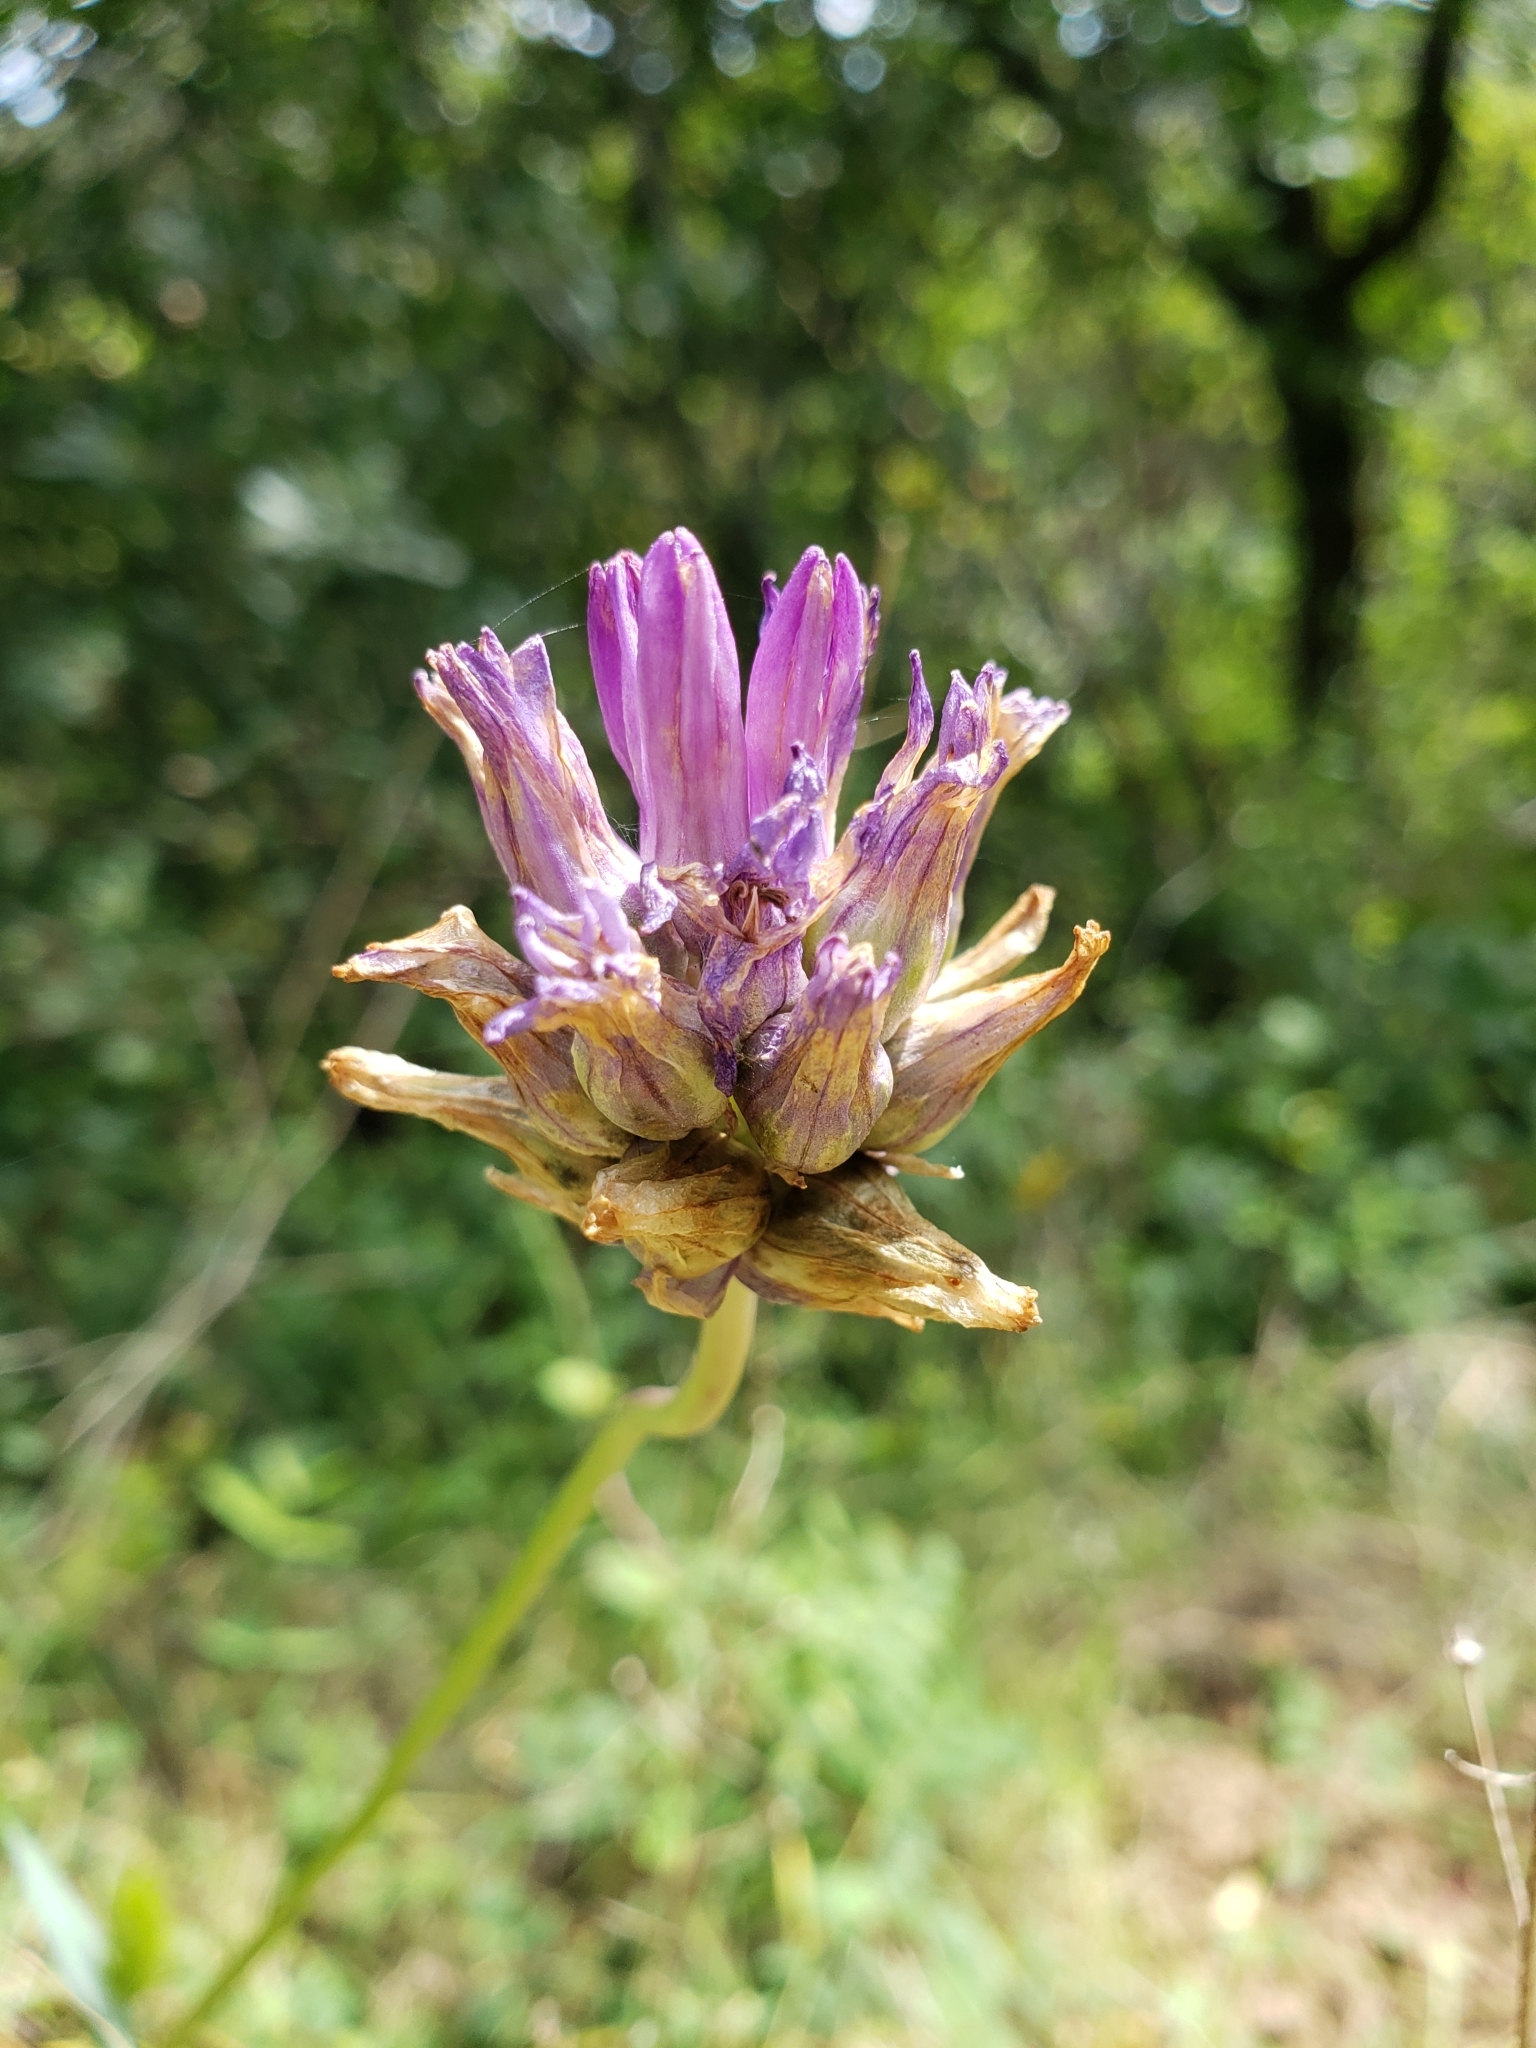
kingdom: Plantae
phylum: Tracheophyta
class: Liliopsida
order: Asparagales
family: Asparagaceae
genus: Dichelostemma
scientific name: Dichelostemma congestum
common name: Fork-tooth ookow
